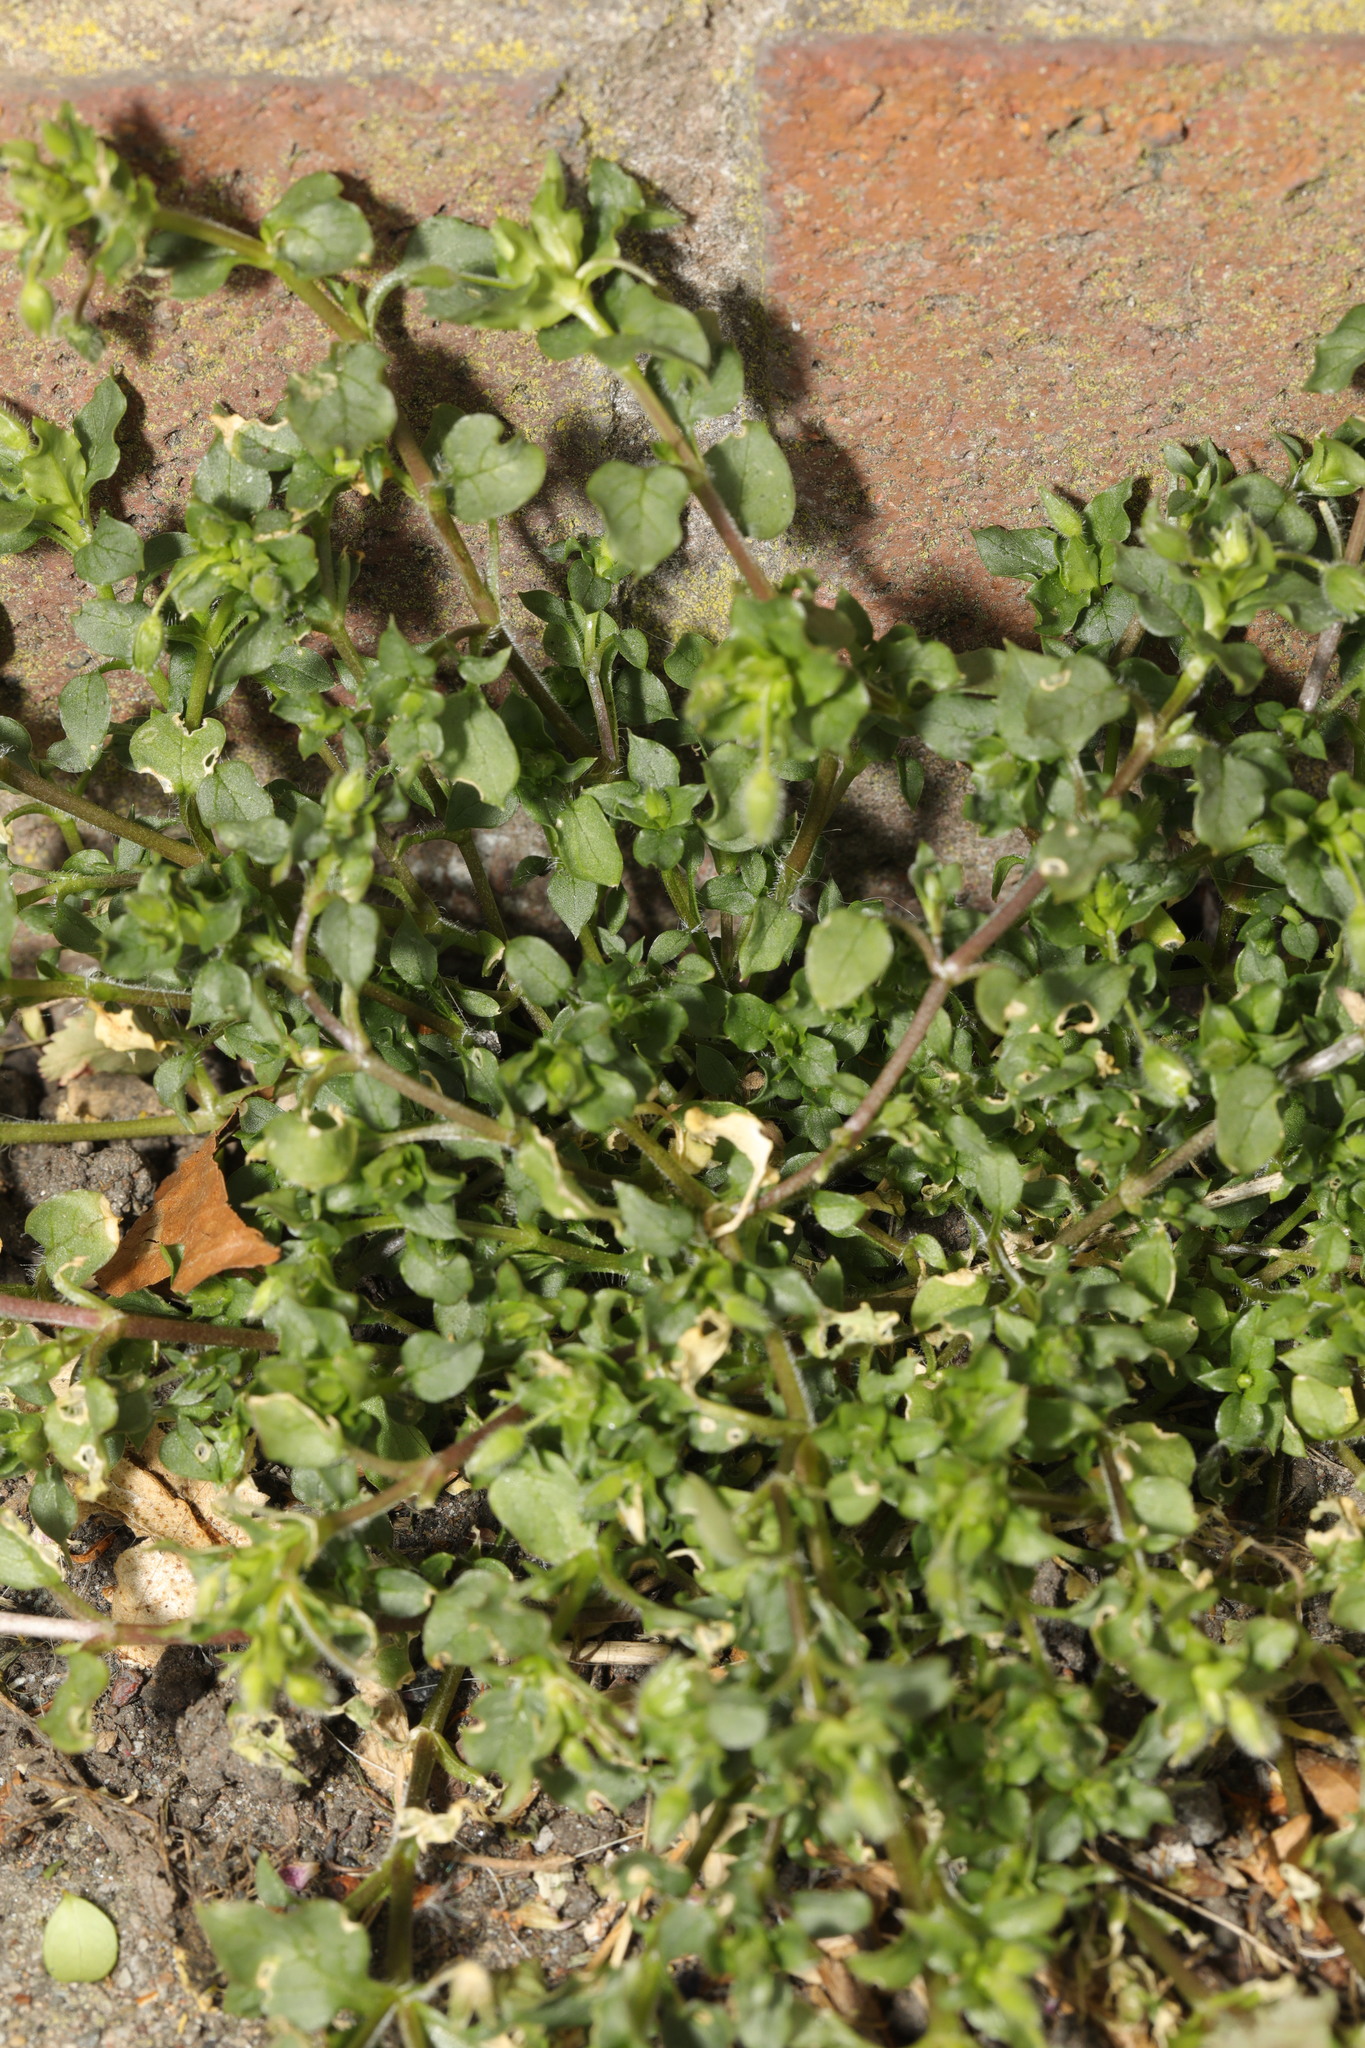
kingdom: Plantae
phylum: Tracheophyta
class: Magnoliopsida
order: Caryophyllales
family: Caryophyllaceae
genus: Stellaria
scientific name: Stellaria media
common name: Common chickweed
